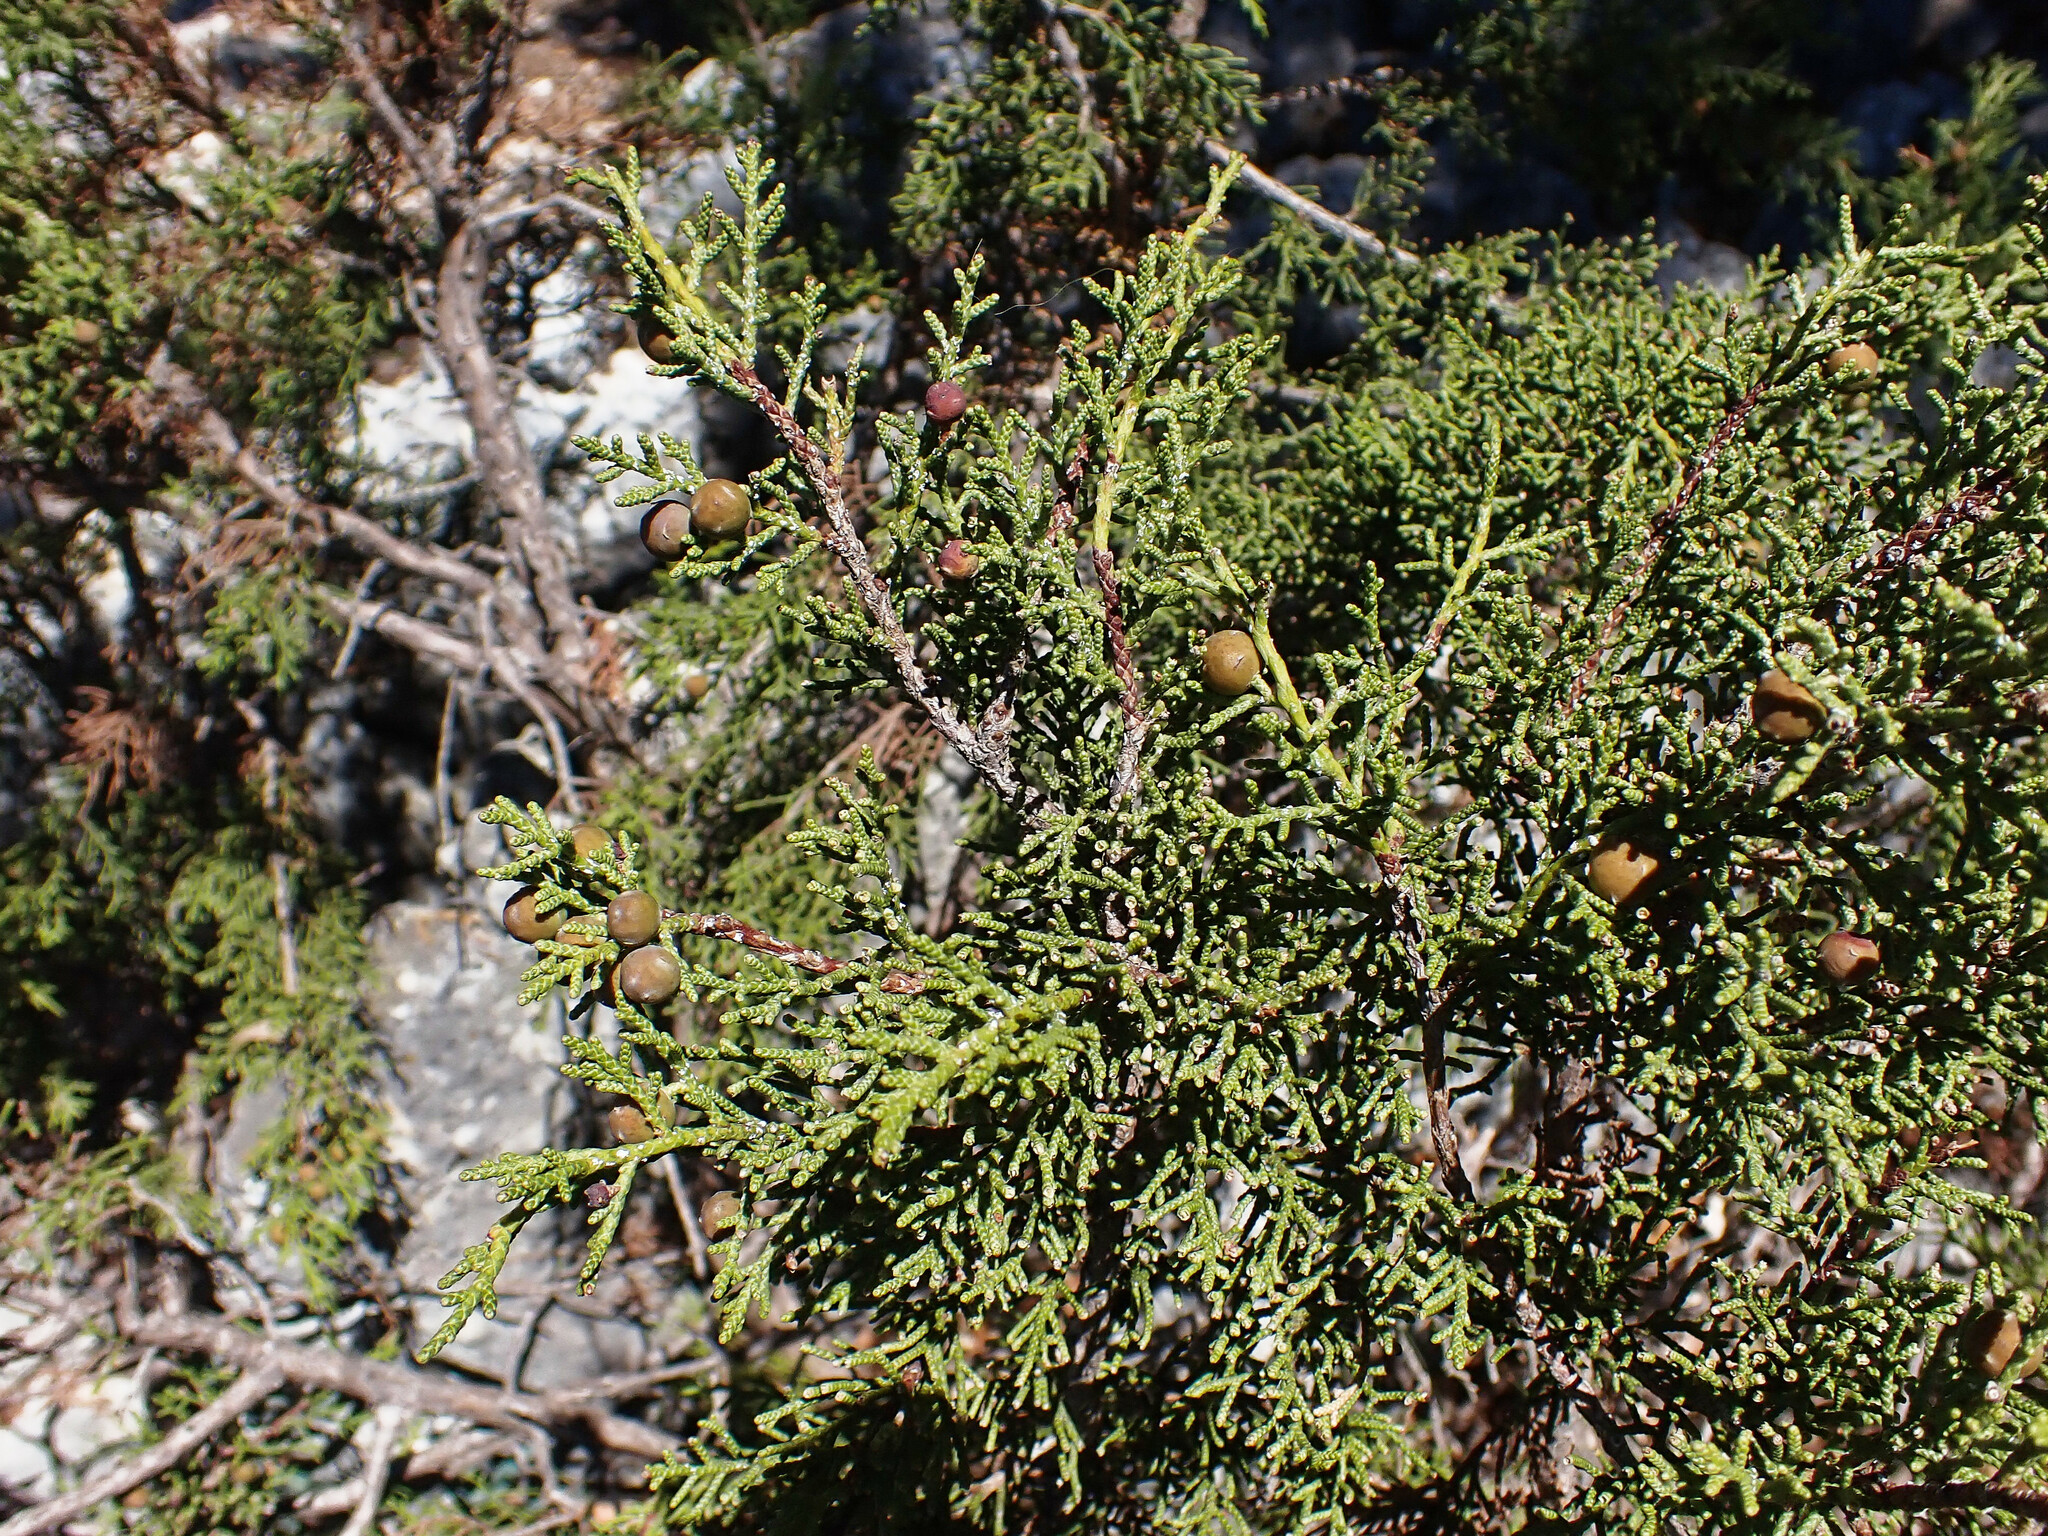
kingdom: Plantae
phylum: Tracheophyta
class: Pinopsida
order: Pinales
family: Cupressaceae
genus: Juniperus
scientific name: Juniperus phoenicea
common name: Phoenician juniper
